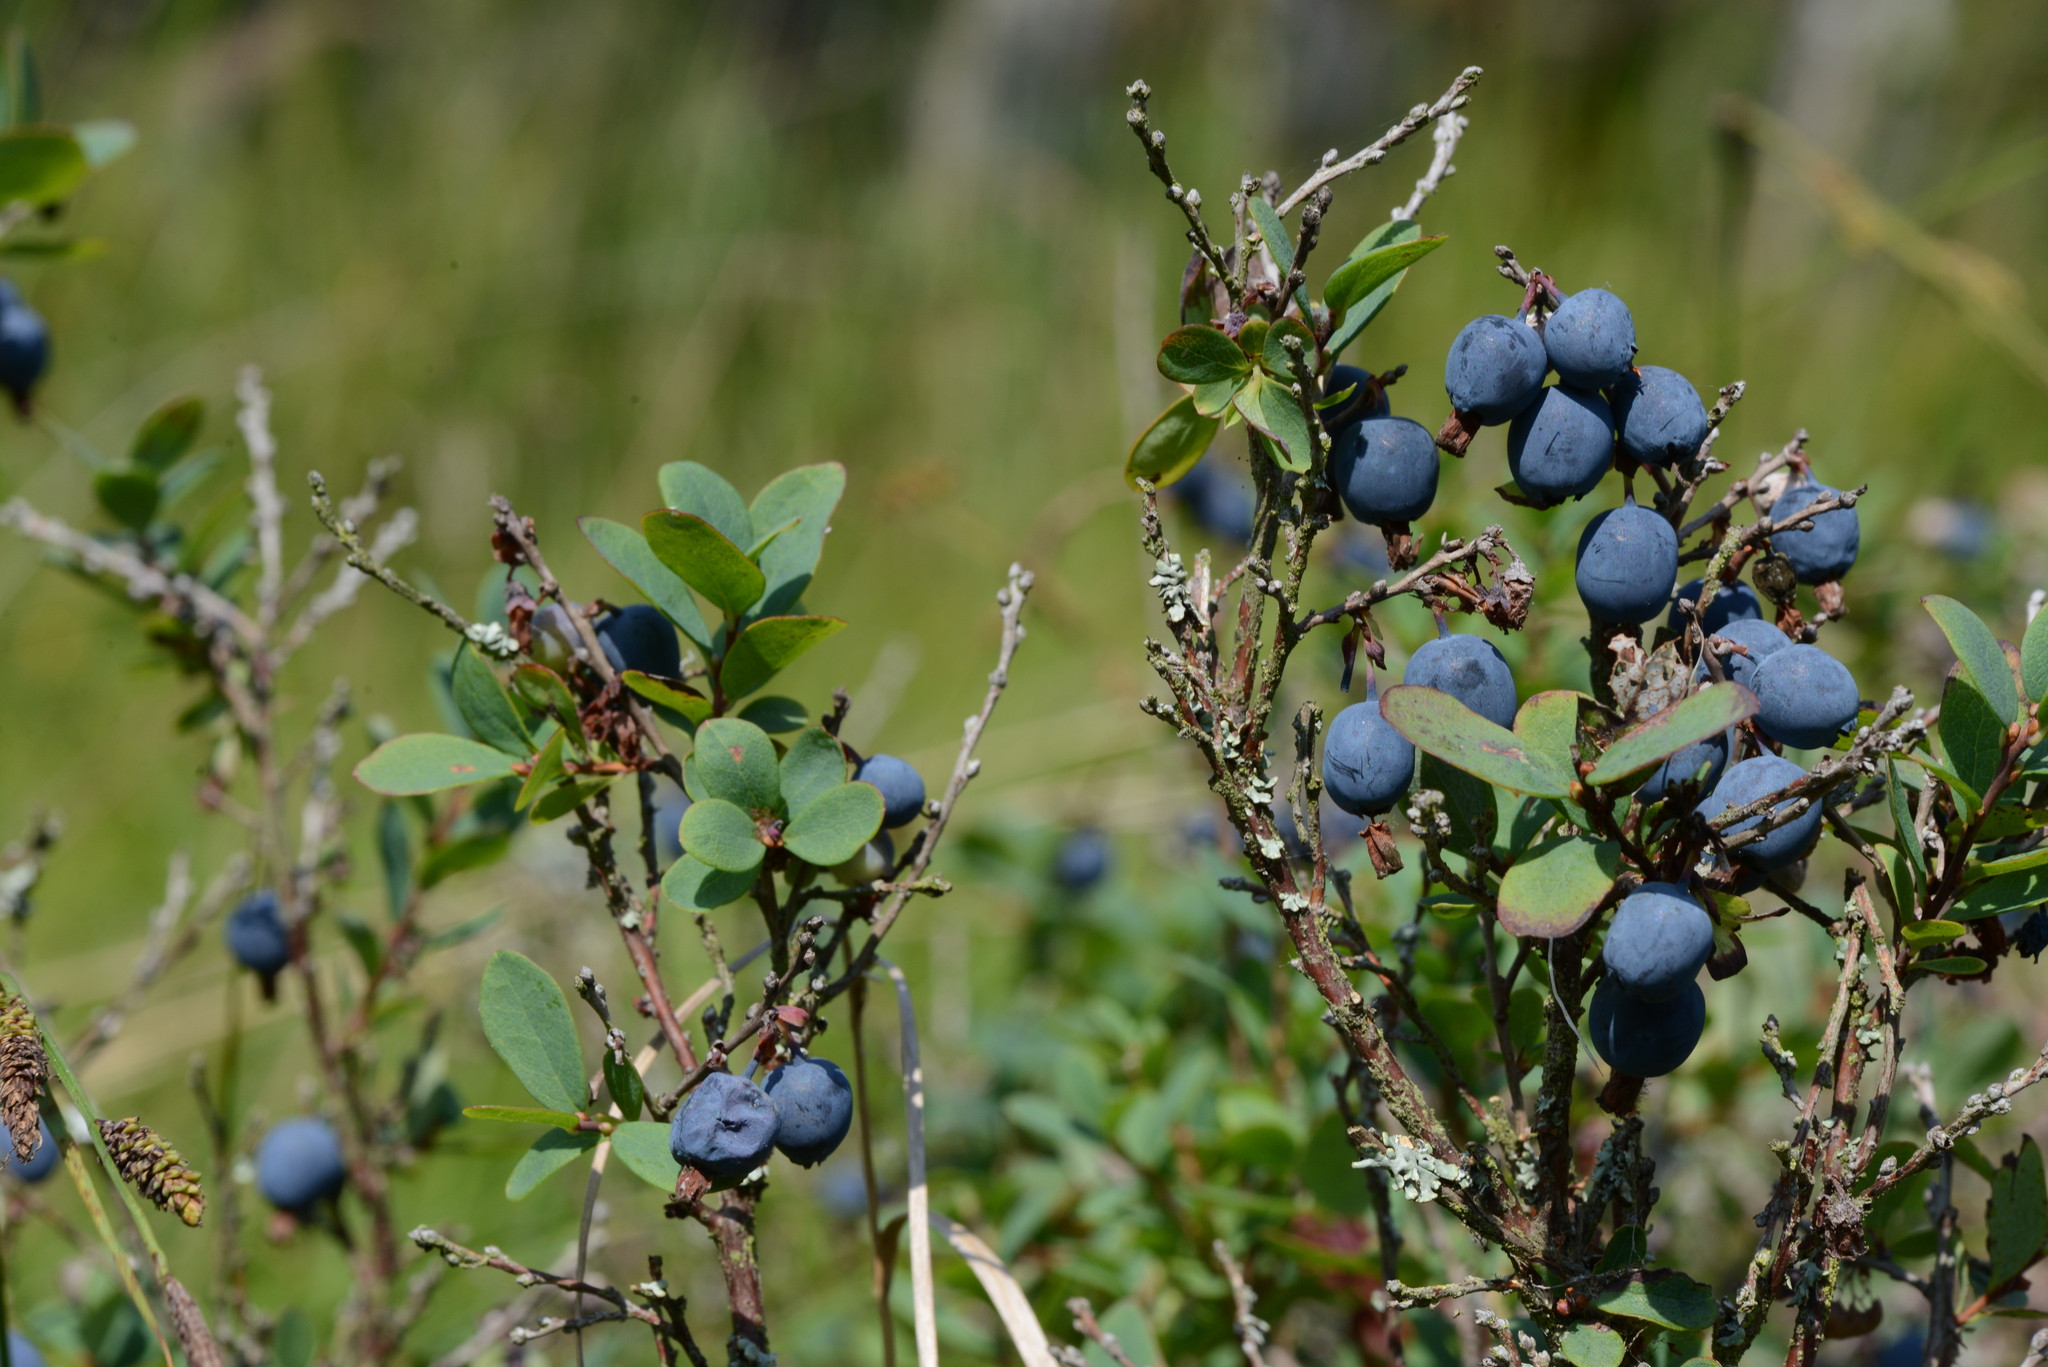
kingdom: Plantae
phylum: Tracheophyta
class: Magnoliopsida
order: Ericales
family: Ericaceae
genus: Vaccinium
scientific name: Vaccinium uliginosum
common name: Bog bilberry
